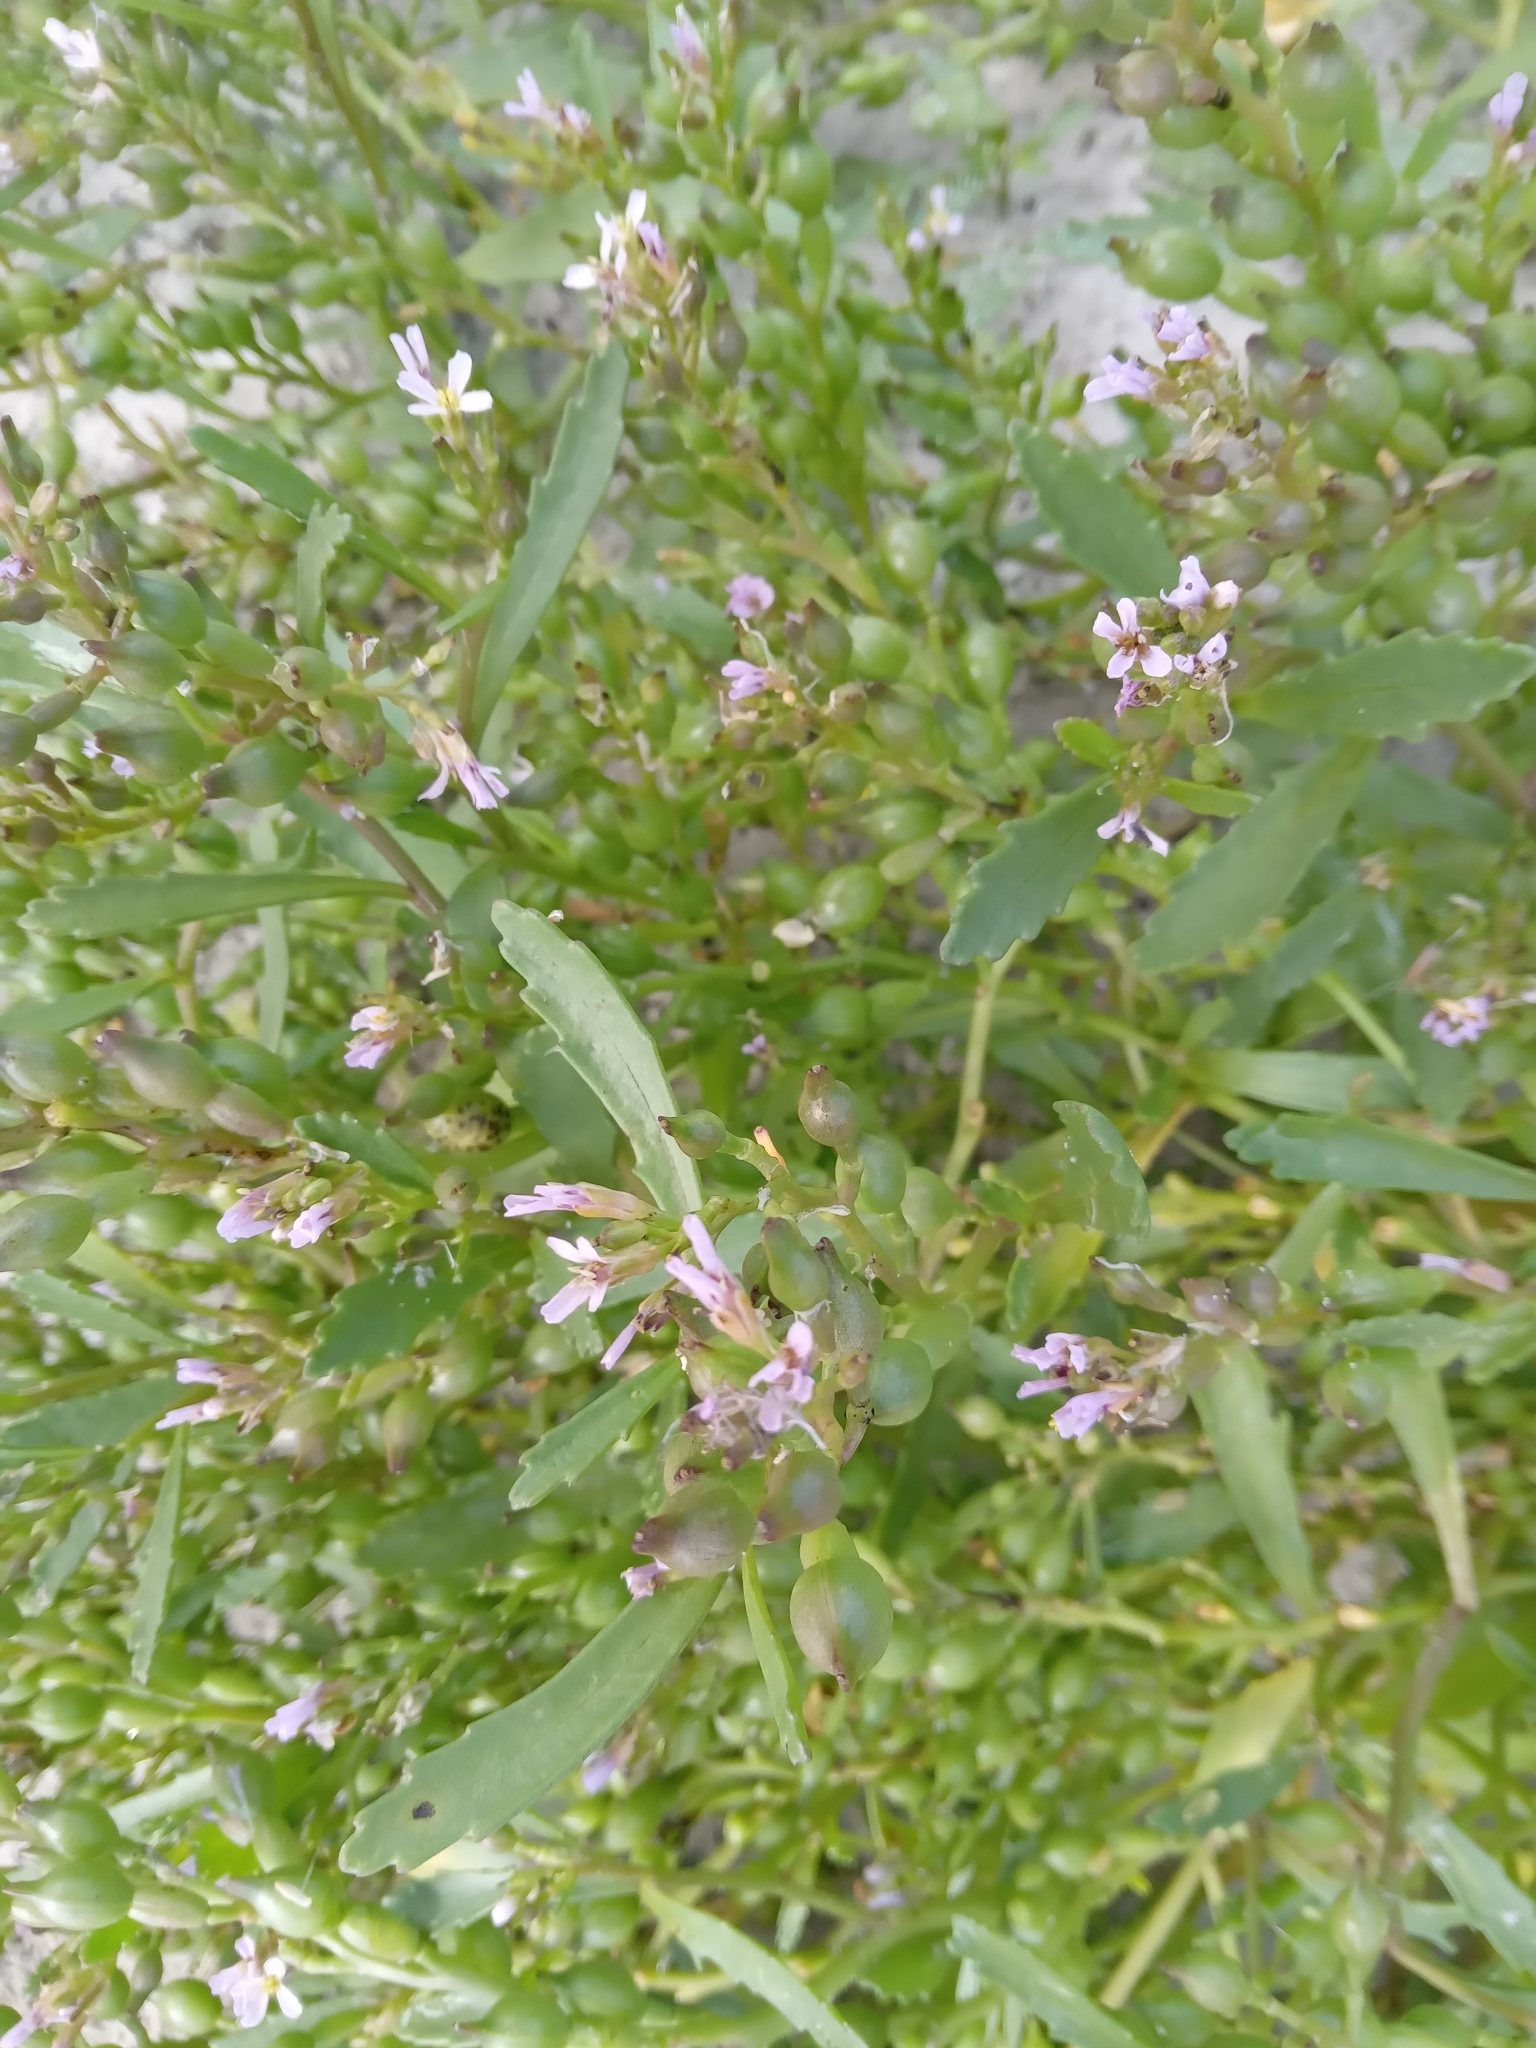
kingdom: Plantae
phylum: Tracheophyta
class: Magnoliopsida
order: Brassicales
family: Brassicaceae
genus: Cakile
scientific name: Cakile edentula
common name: American sea rocket
